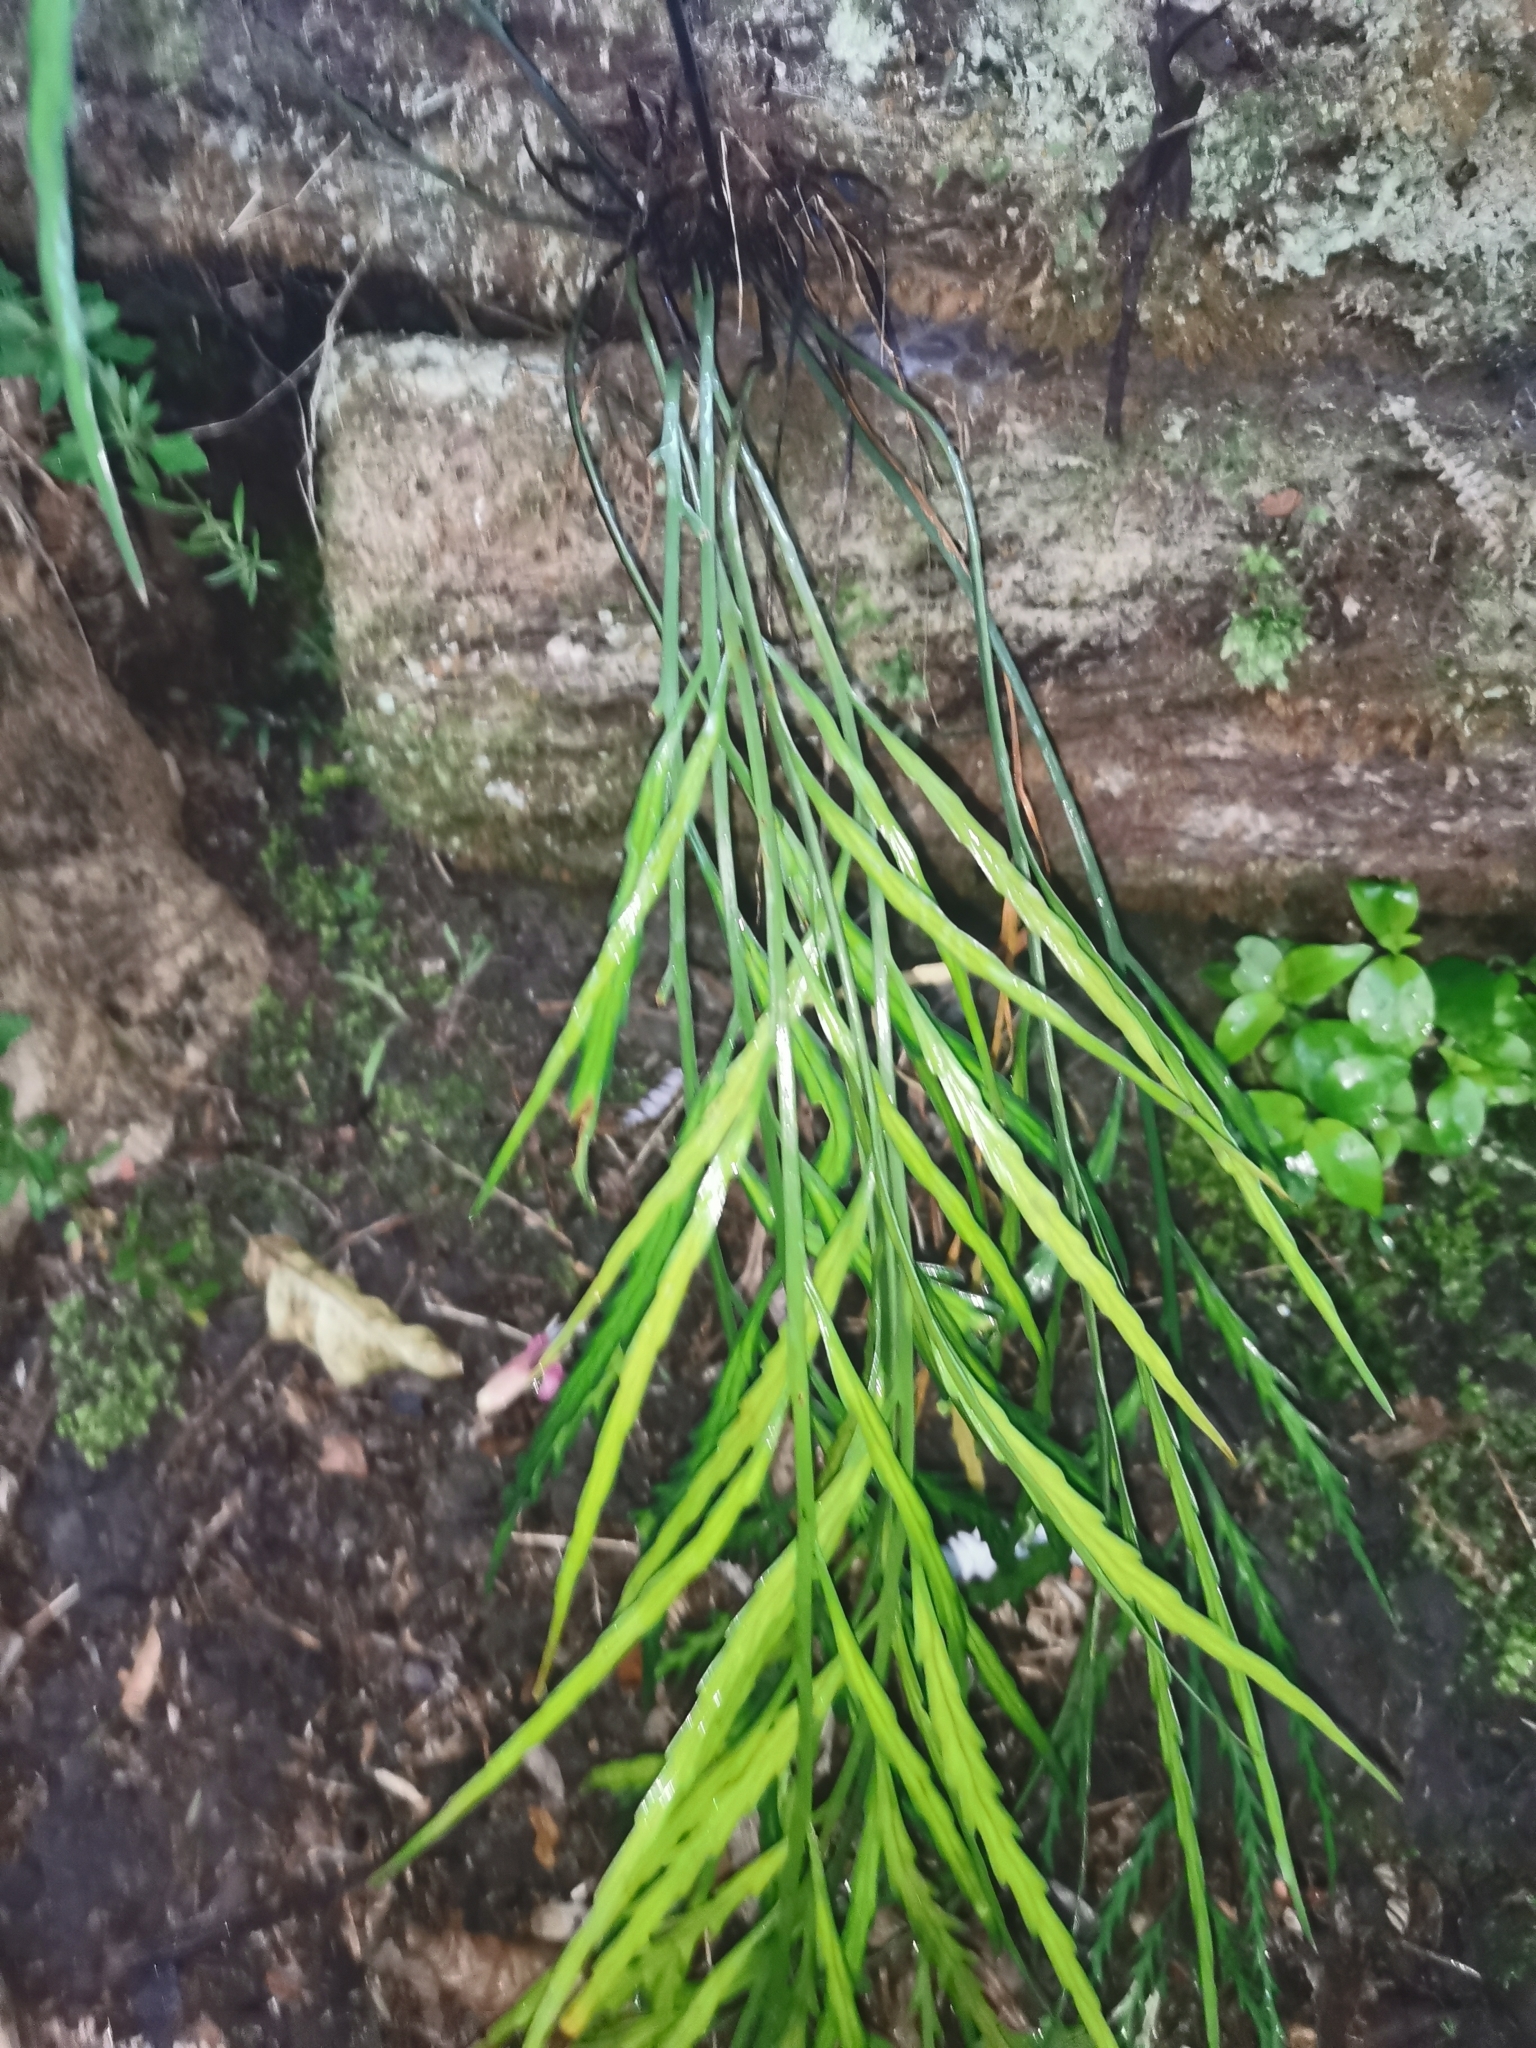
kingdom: Plantae
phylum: Tracheophyta
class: Polypodiopsida
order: Polypodiales
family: Aspleniaceae
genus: Asplenium
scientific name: Asplenium flaccidum
